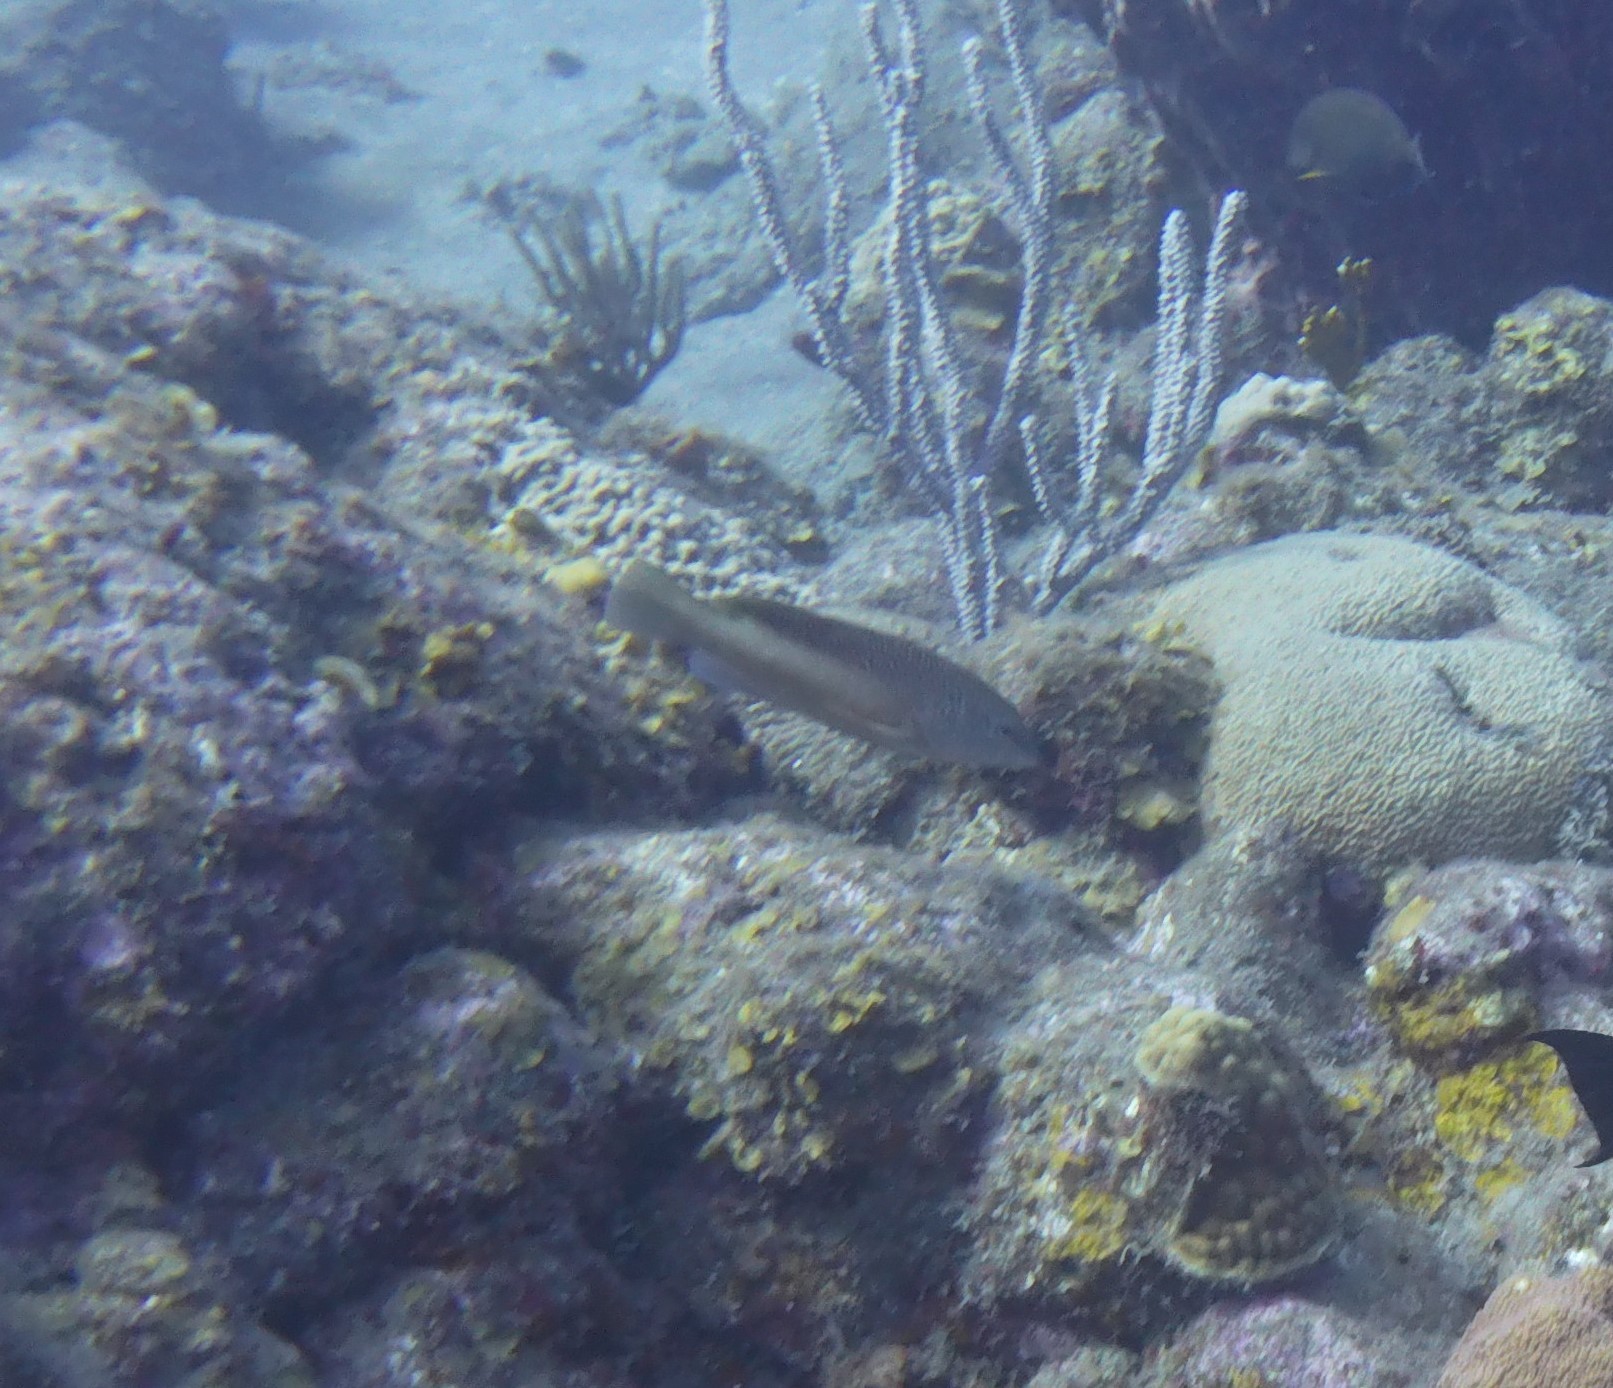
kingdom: Animalia
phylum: Chordata
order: Perciformes
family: Serranidae
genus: Cephalopholis
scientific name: Cephalopholis fulva
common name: Butterfish
